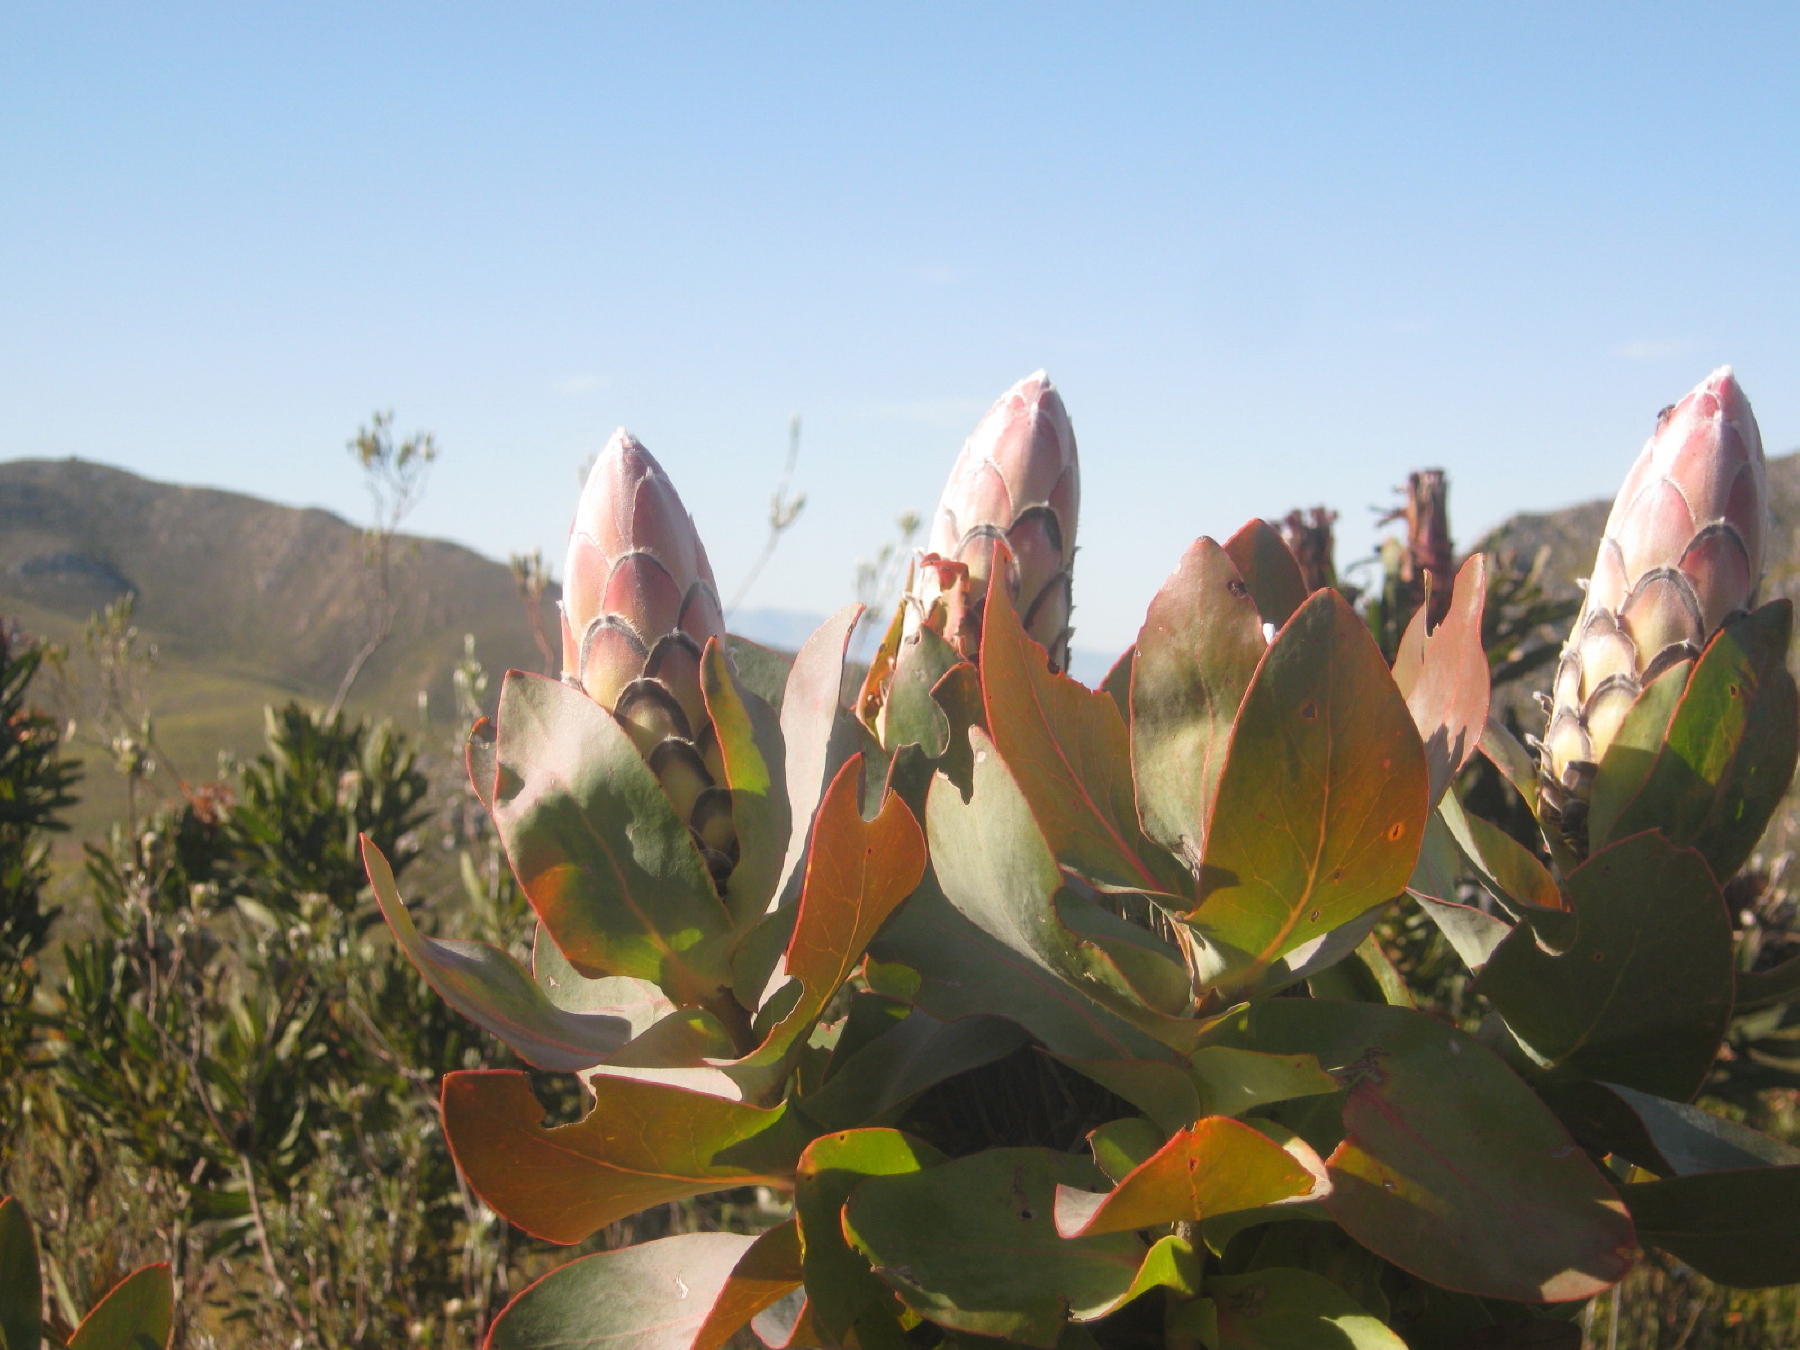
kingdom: Plantae
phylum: Tracheophyta
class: Magnoliopsida
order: Proteales
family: Proteaceae
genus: Protea
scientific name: Protea eximia
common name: Broad-leaved sugarbush
